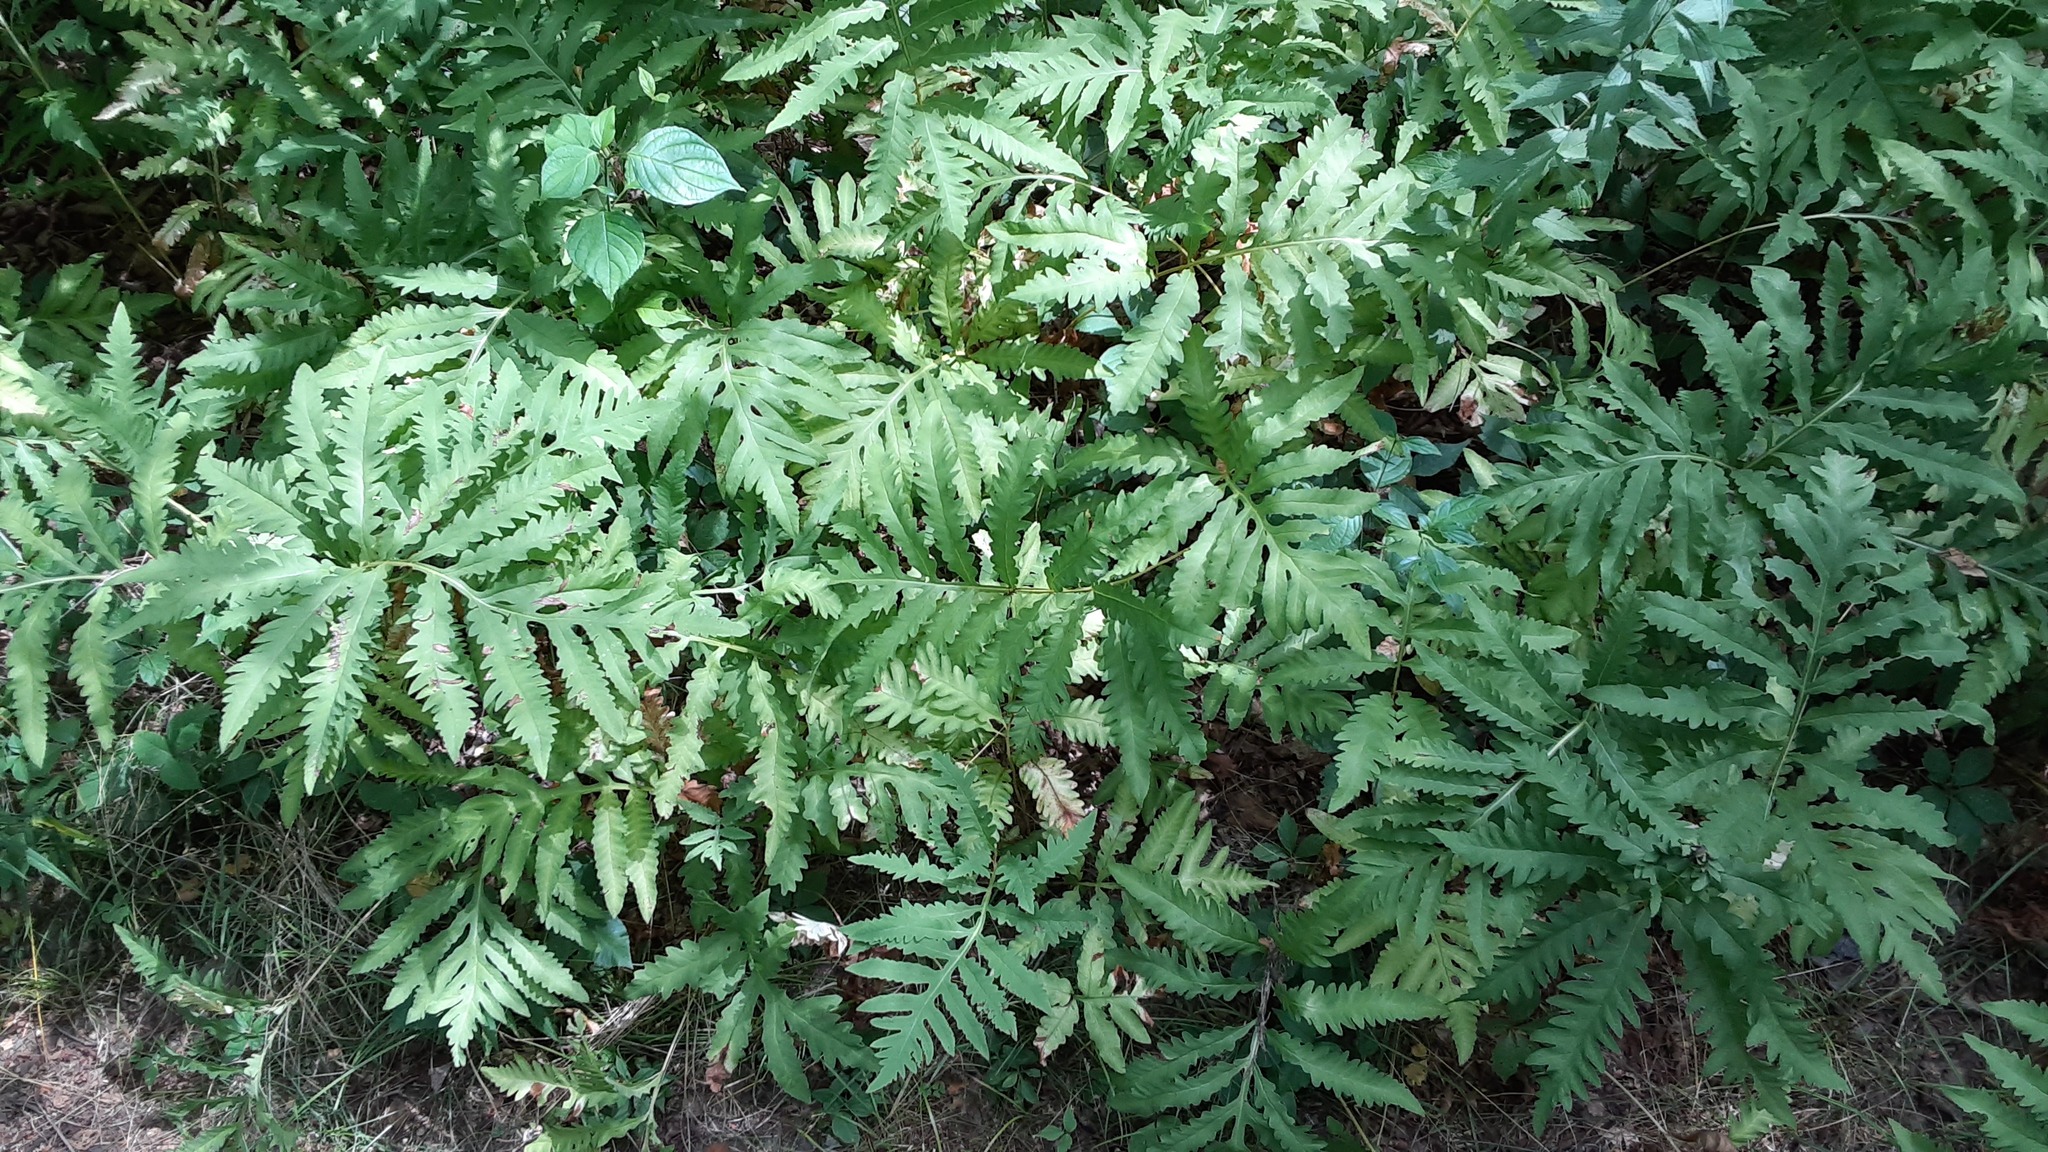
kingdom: Plantae
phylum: Tracheophyta
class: Polypodiopsida
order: Polypodiales
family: Onocleaceae
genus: Onoclea
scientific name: Onoclea sensibilis
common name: Sensitive fern
